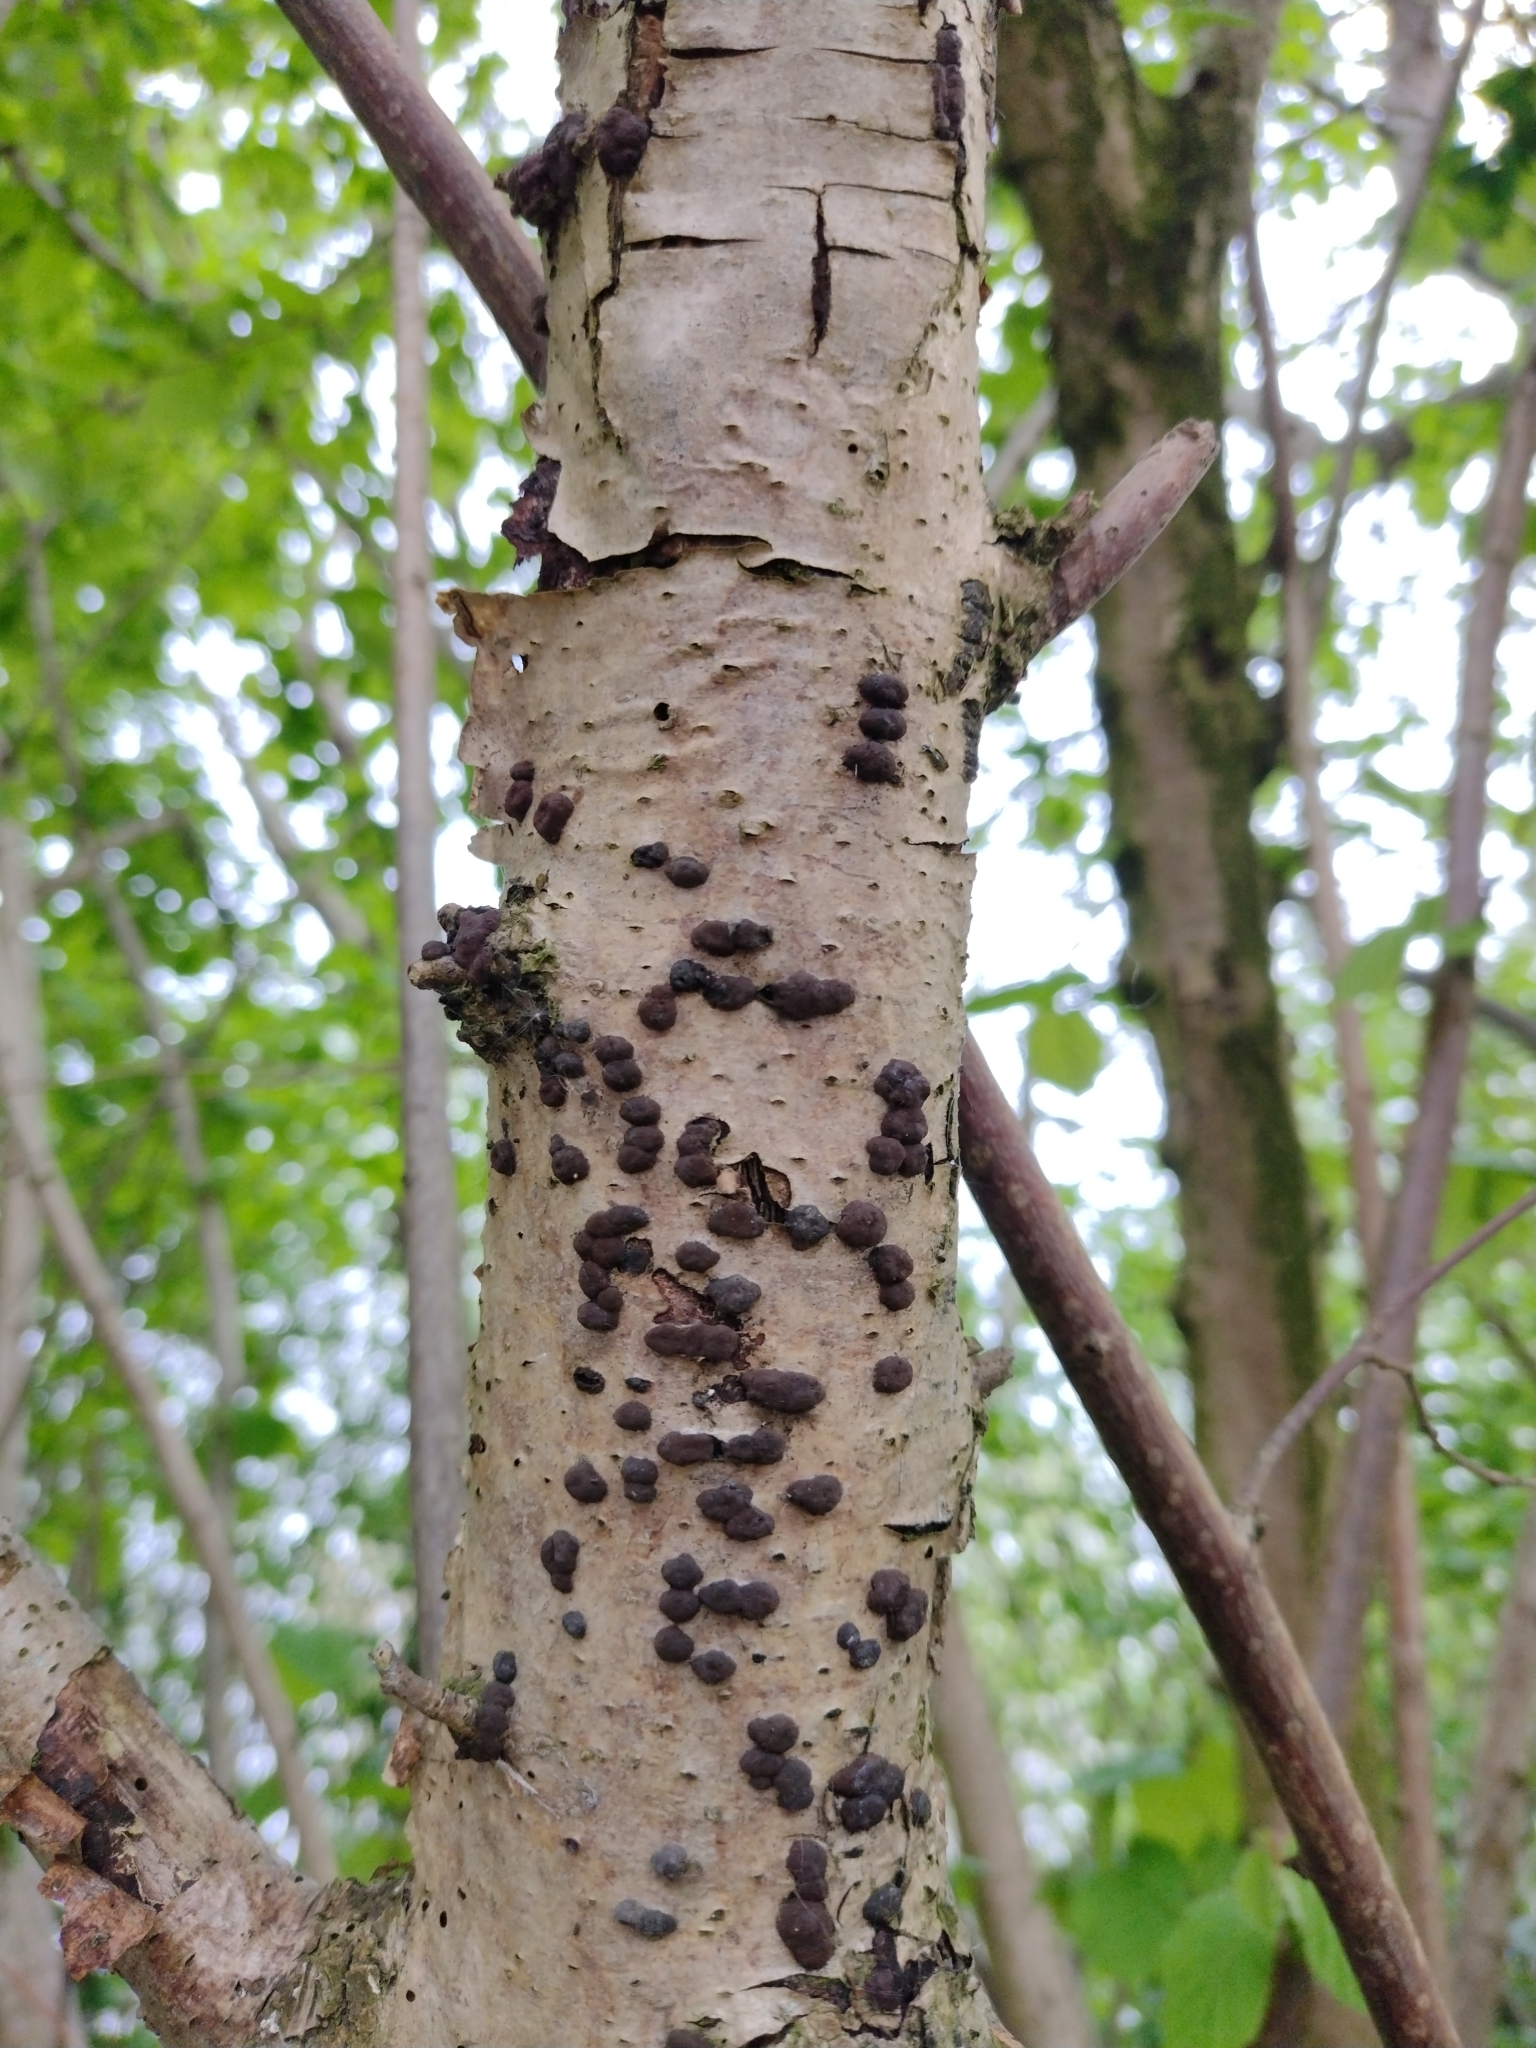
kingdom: Fungi
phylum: Ascomycota
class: Sordariomycetes
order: Xylariales
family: Hypoxylaceae
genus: Hypoxylon
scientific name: Hypoxylon fuscum
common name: Hazel woodwart
